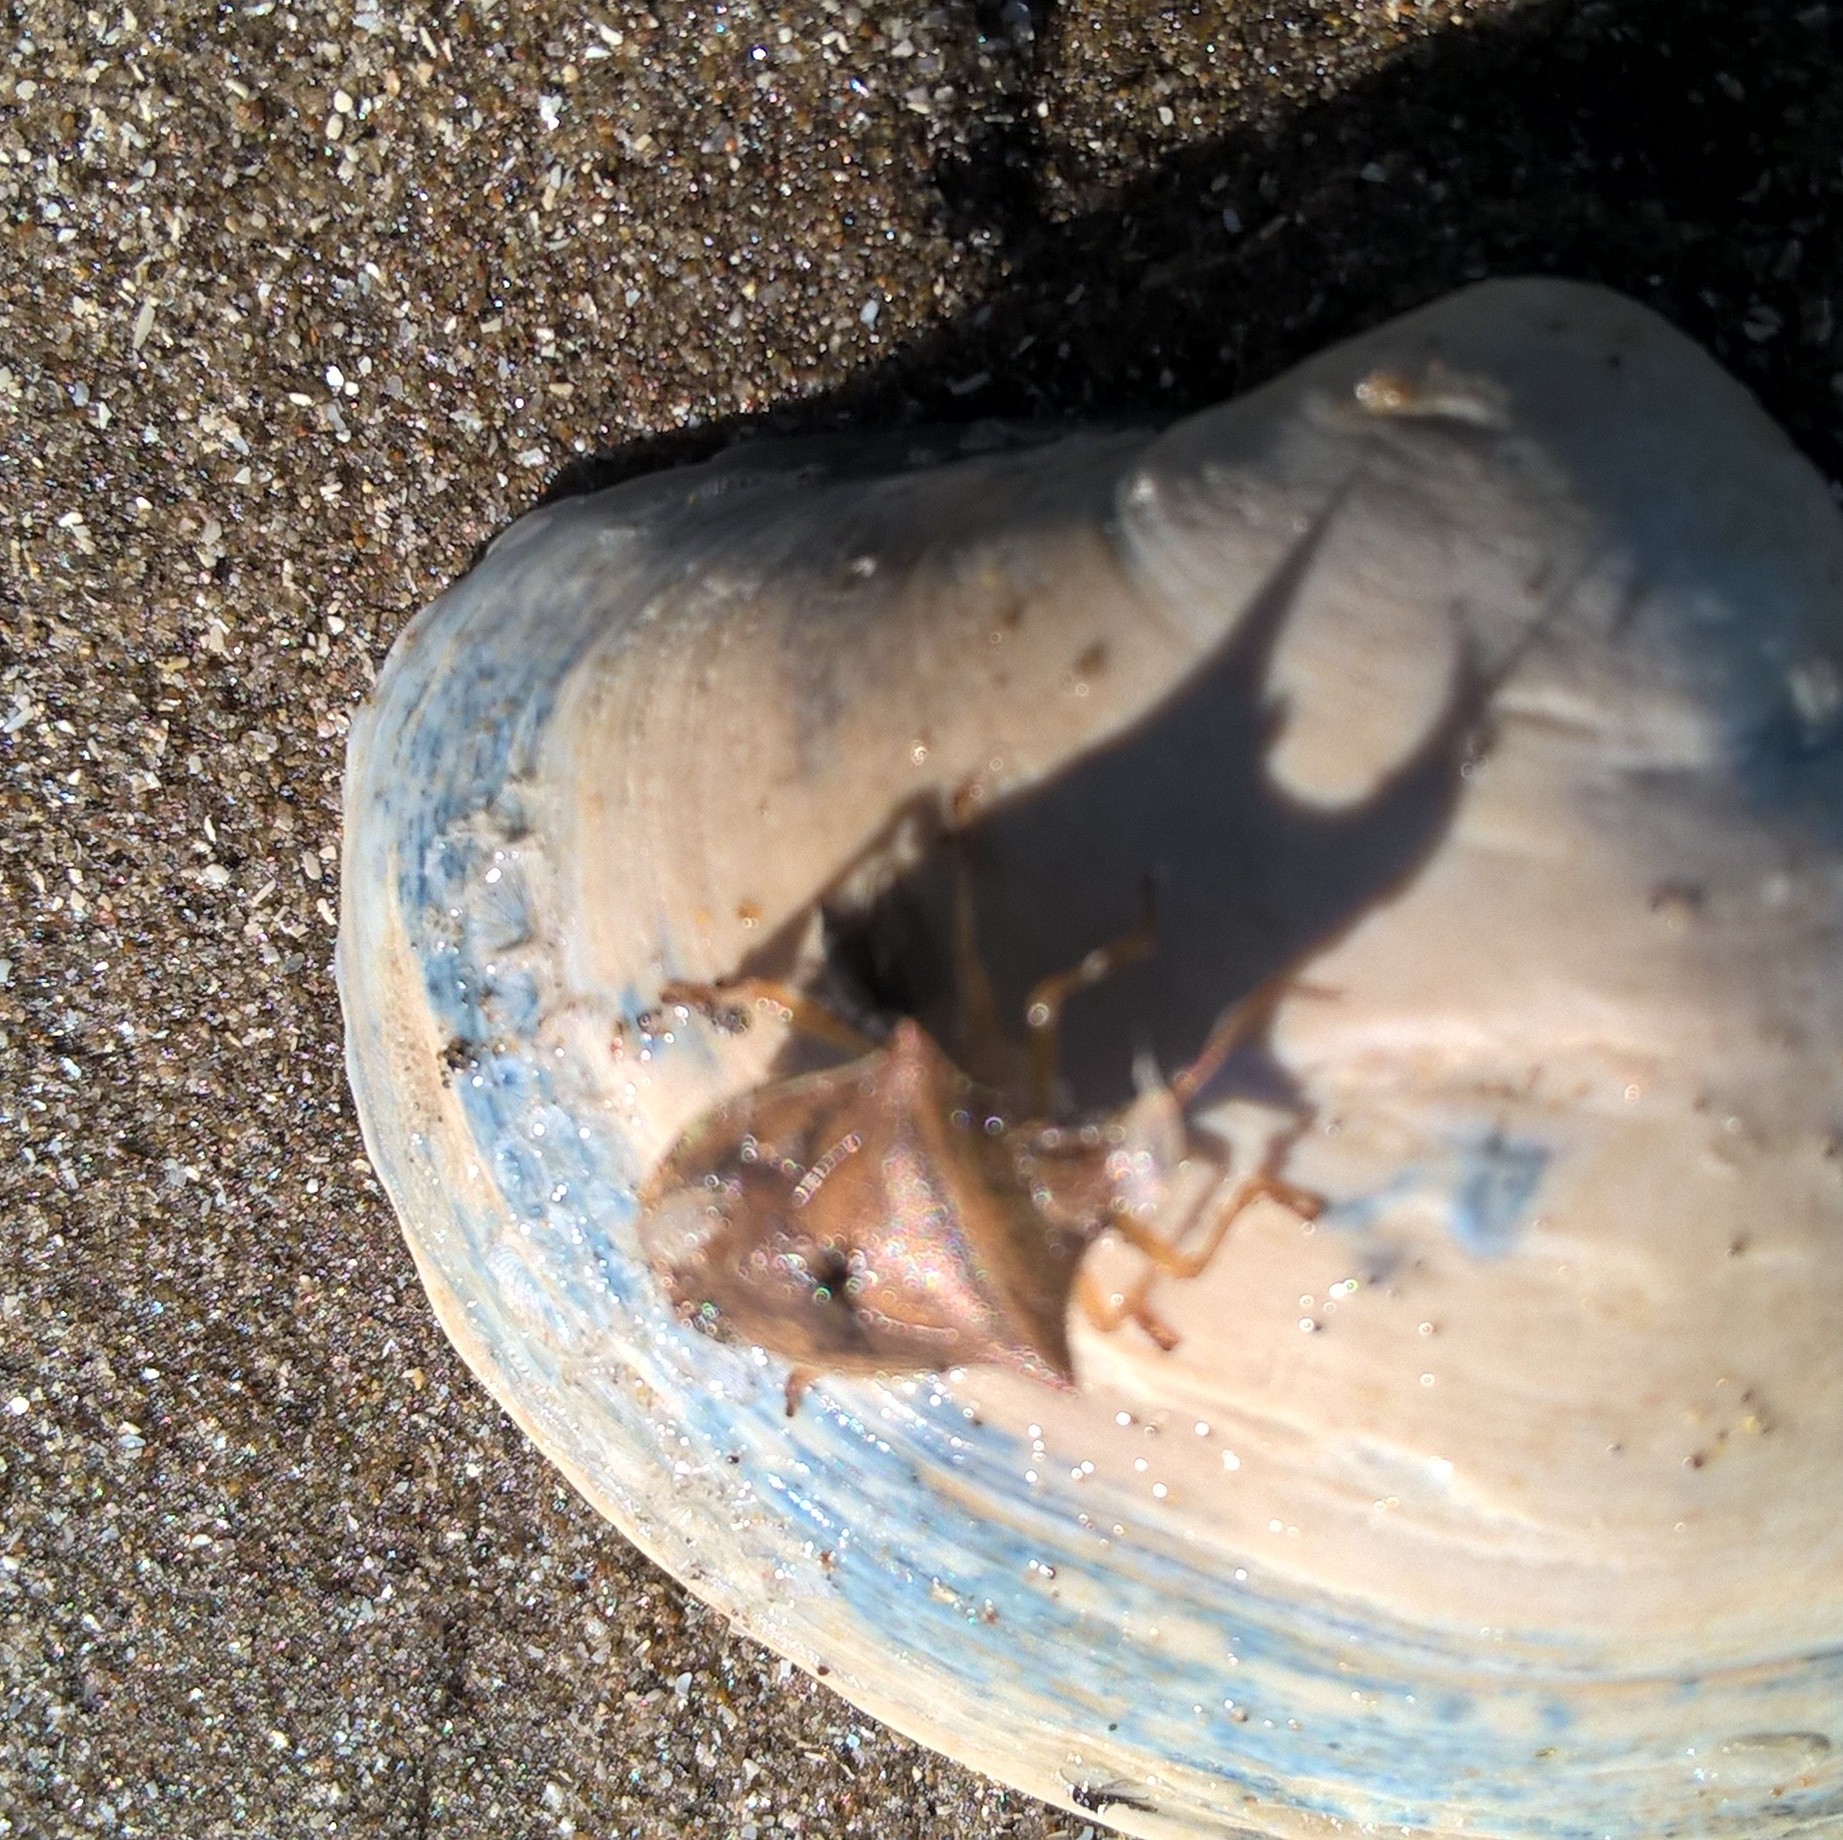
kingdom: Animalia
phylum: Arthropoda
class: Insecta
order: Hemiptera
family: Pentatomidae
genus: Diceraeus
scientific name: Diceraeus furcatus
